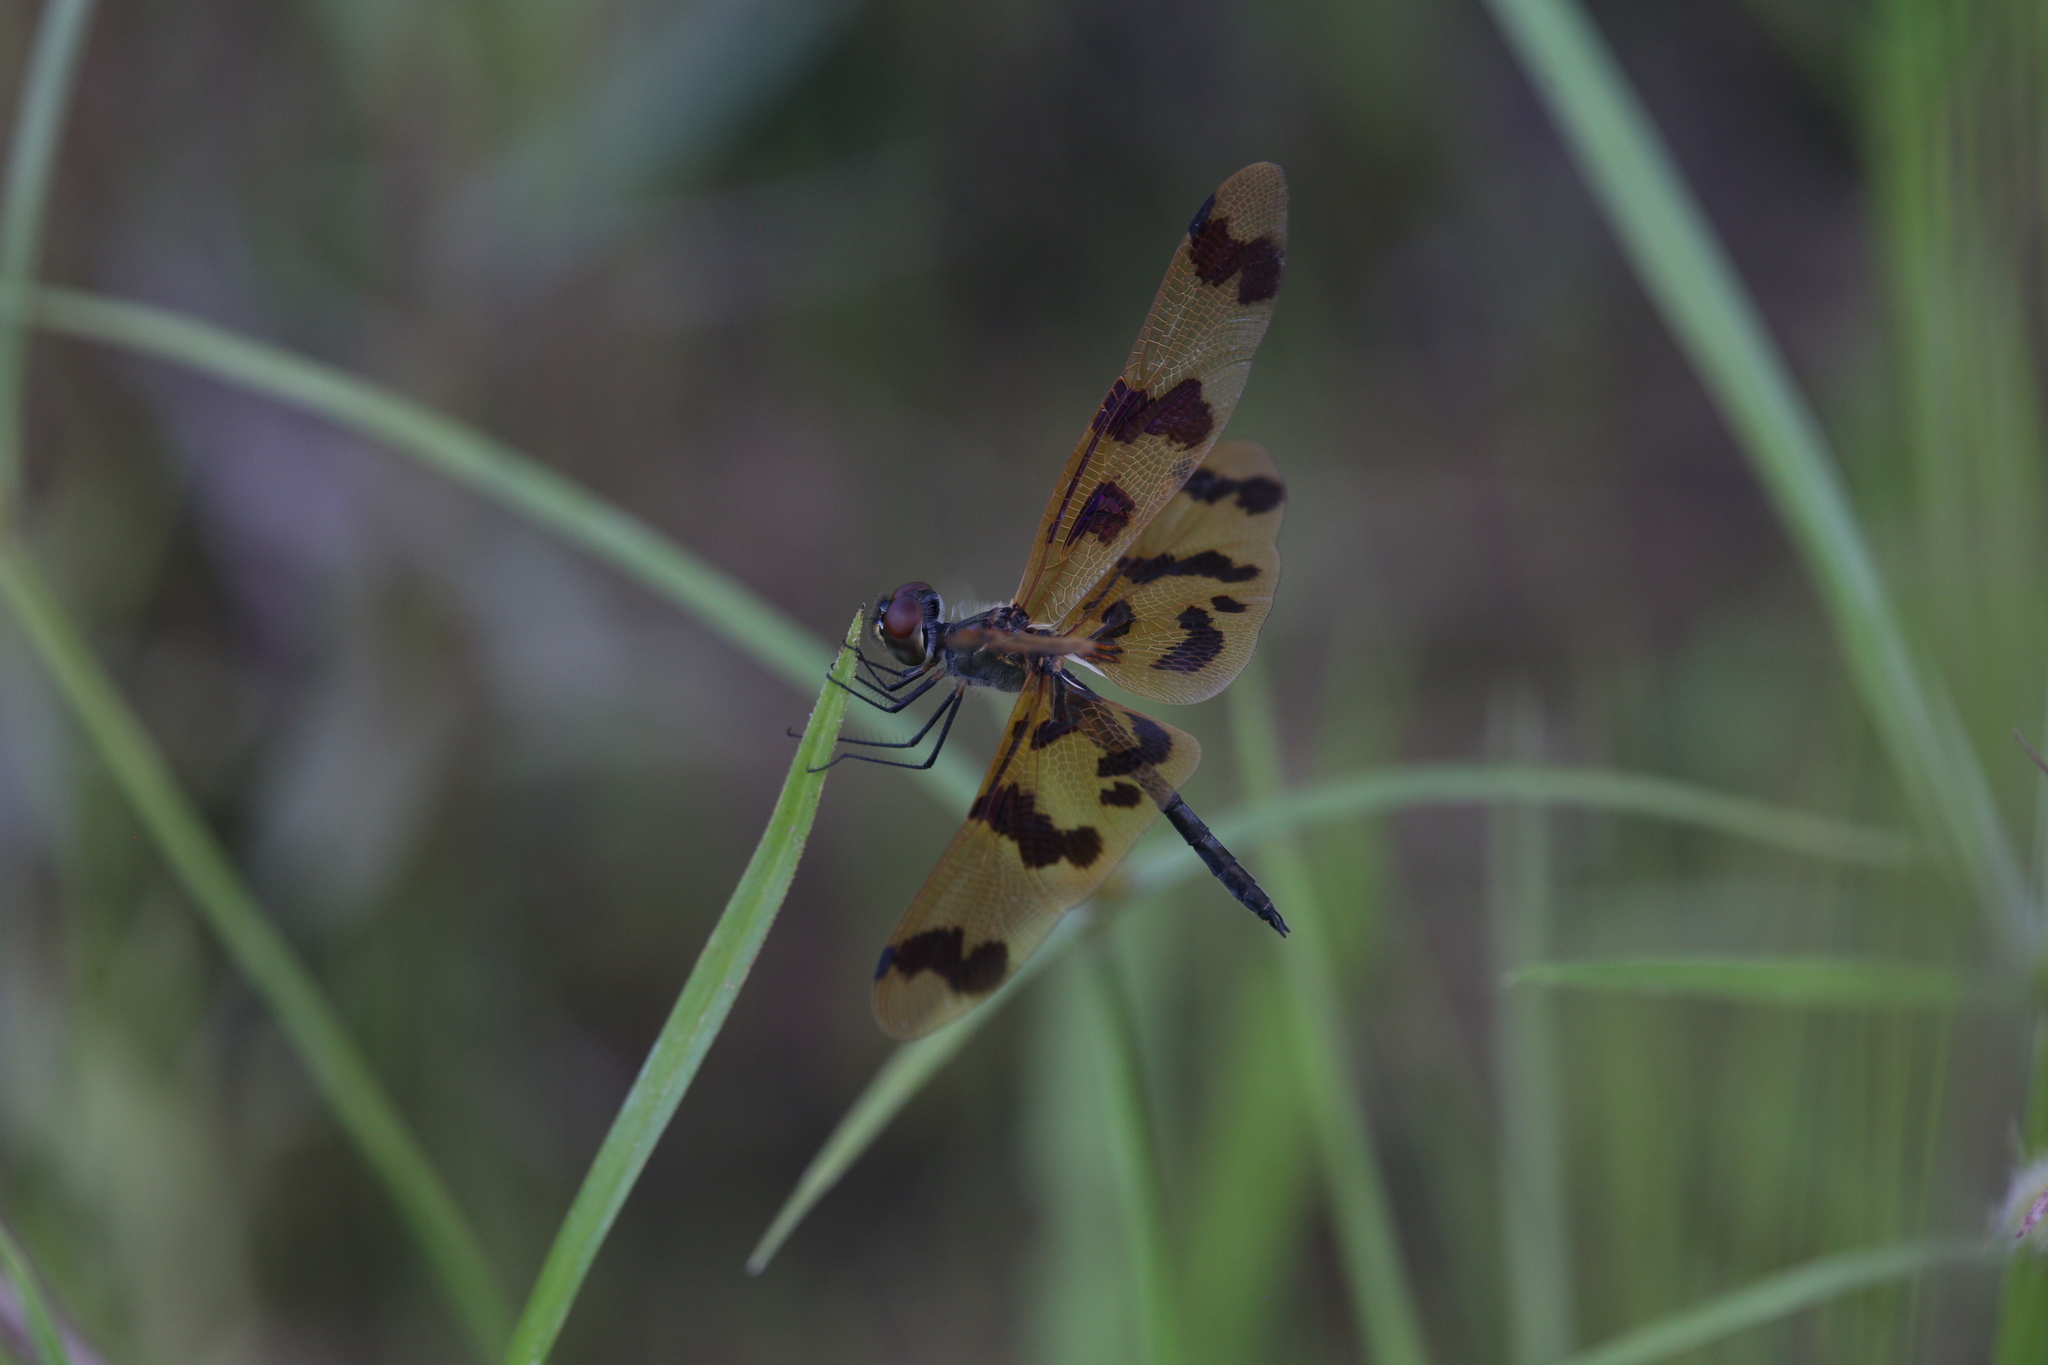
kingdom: Animalia
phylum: Arthropoda
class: Insecta
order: Odonata
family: Libellulidae
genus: Rhyothemis
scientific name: Rhyothemis graphiptera
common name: Graphic flutterer
